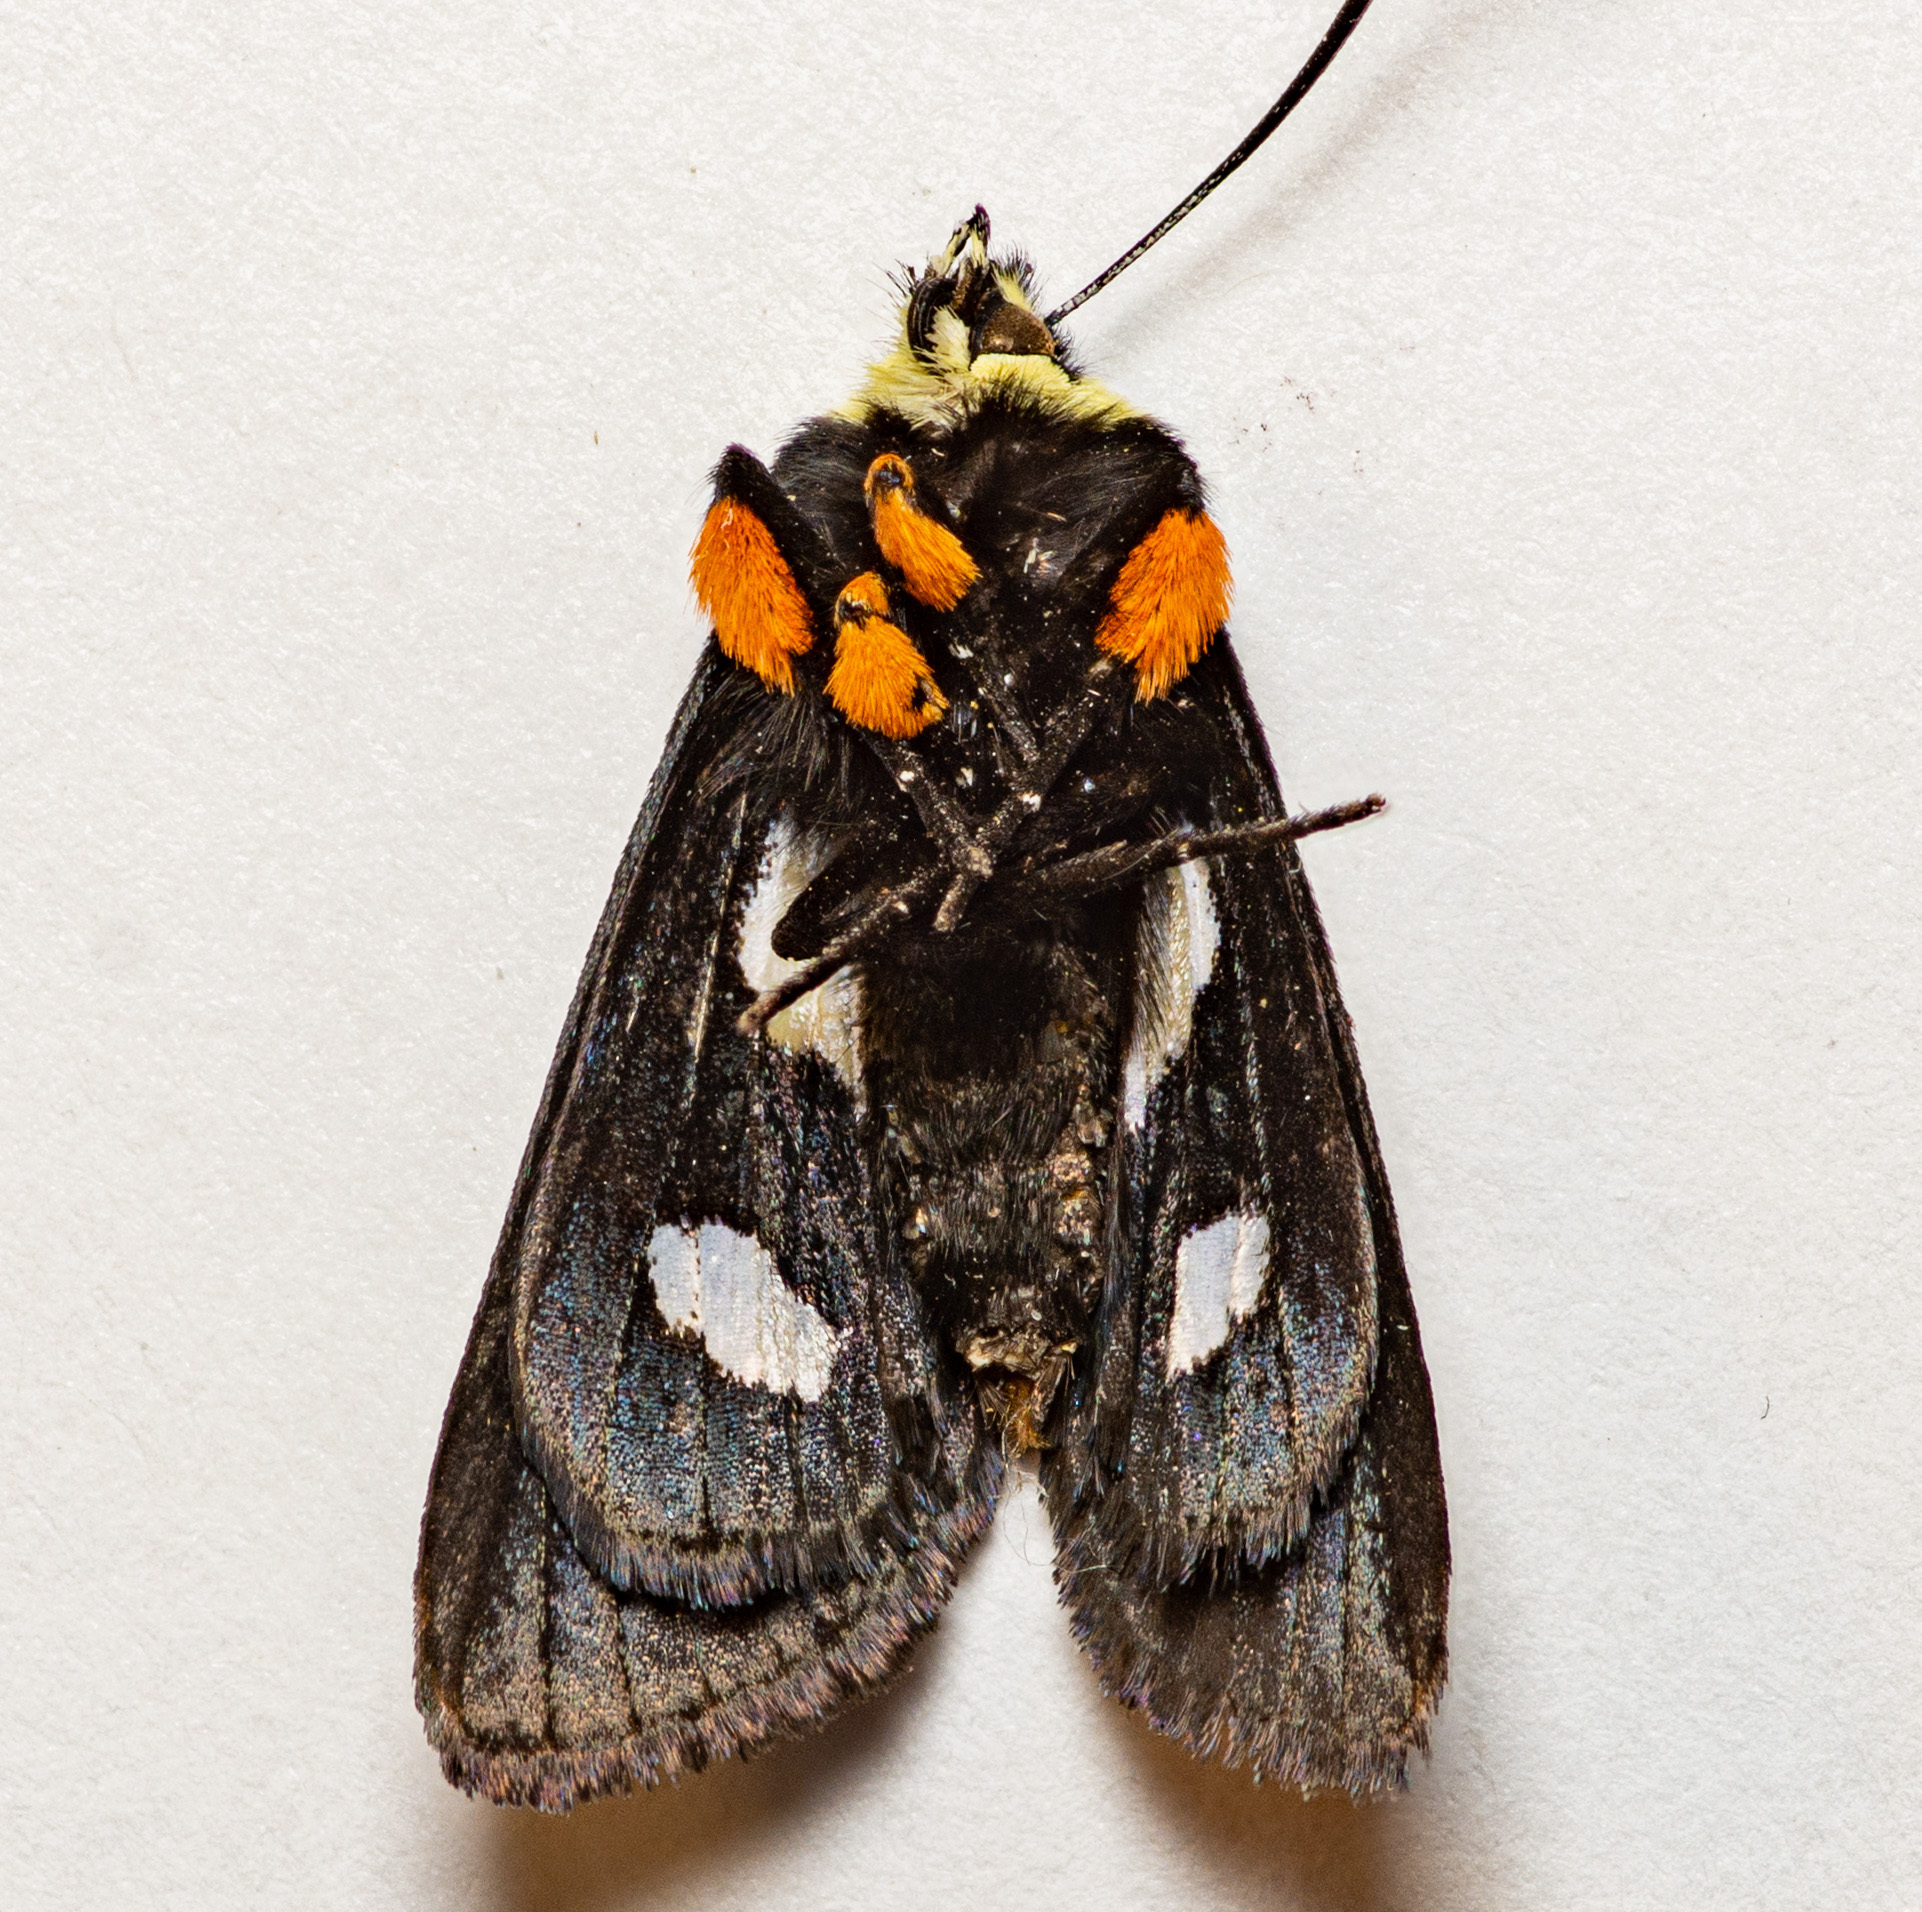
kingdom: Animalia
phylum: Arthropoda
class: Insecta
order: Lepidoptera
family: Noctuidae
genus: Alypia
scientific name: Alypia octomaculata
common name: Eight-spotted forester
